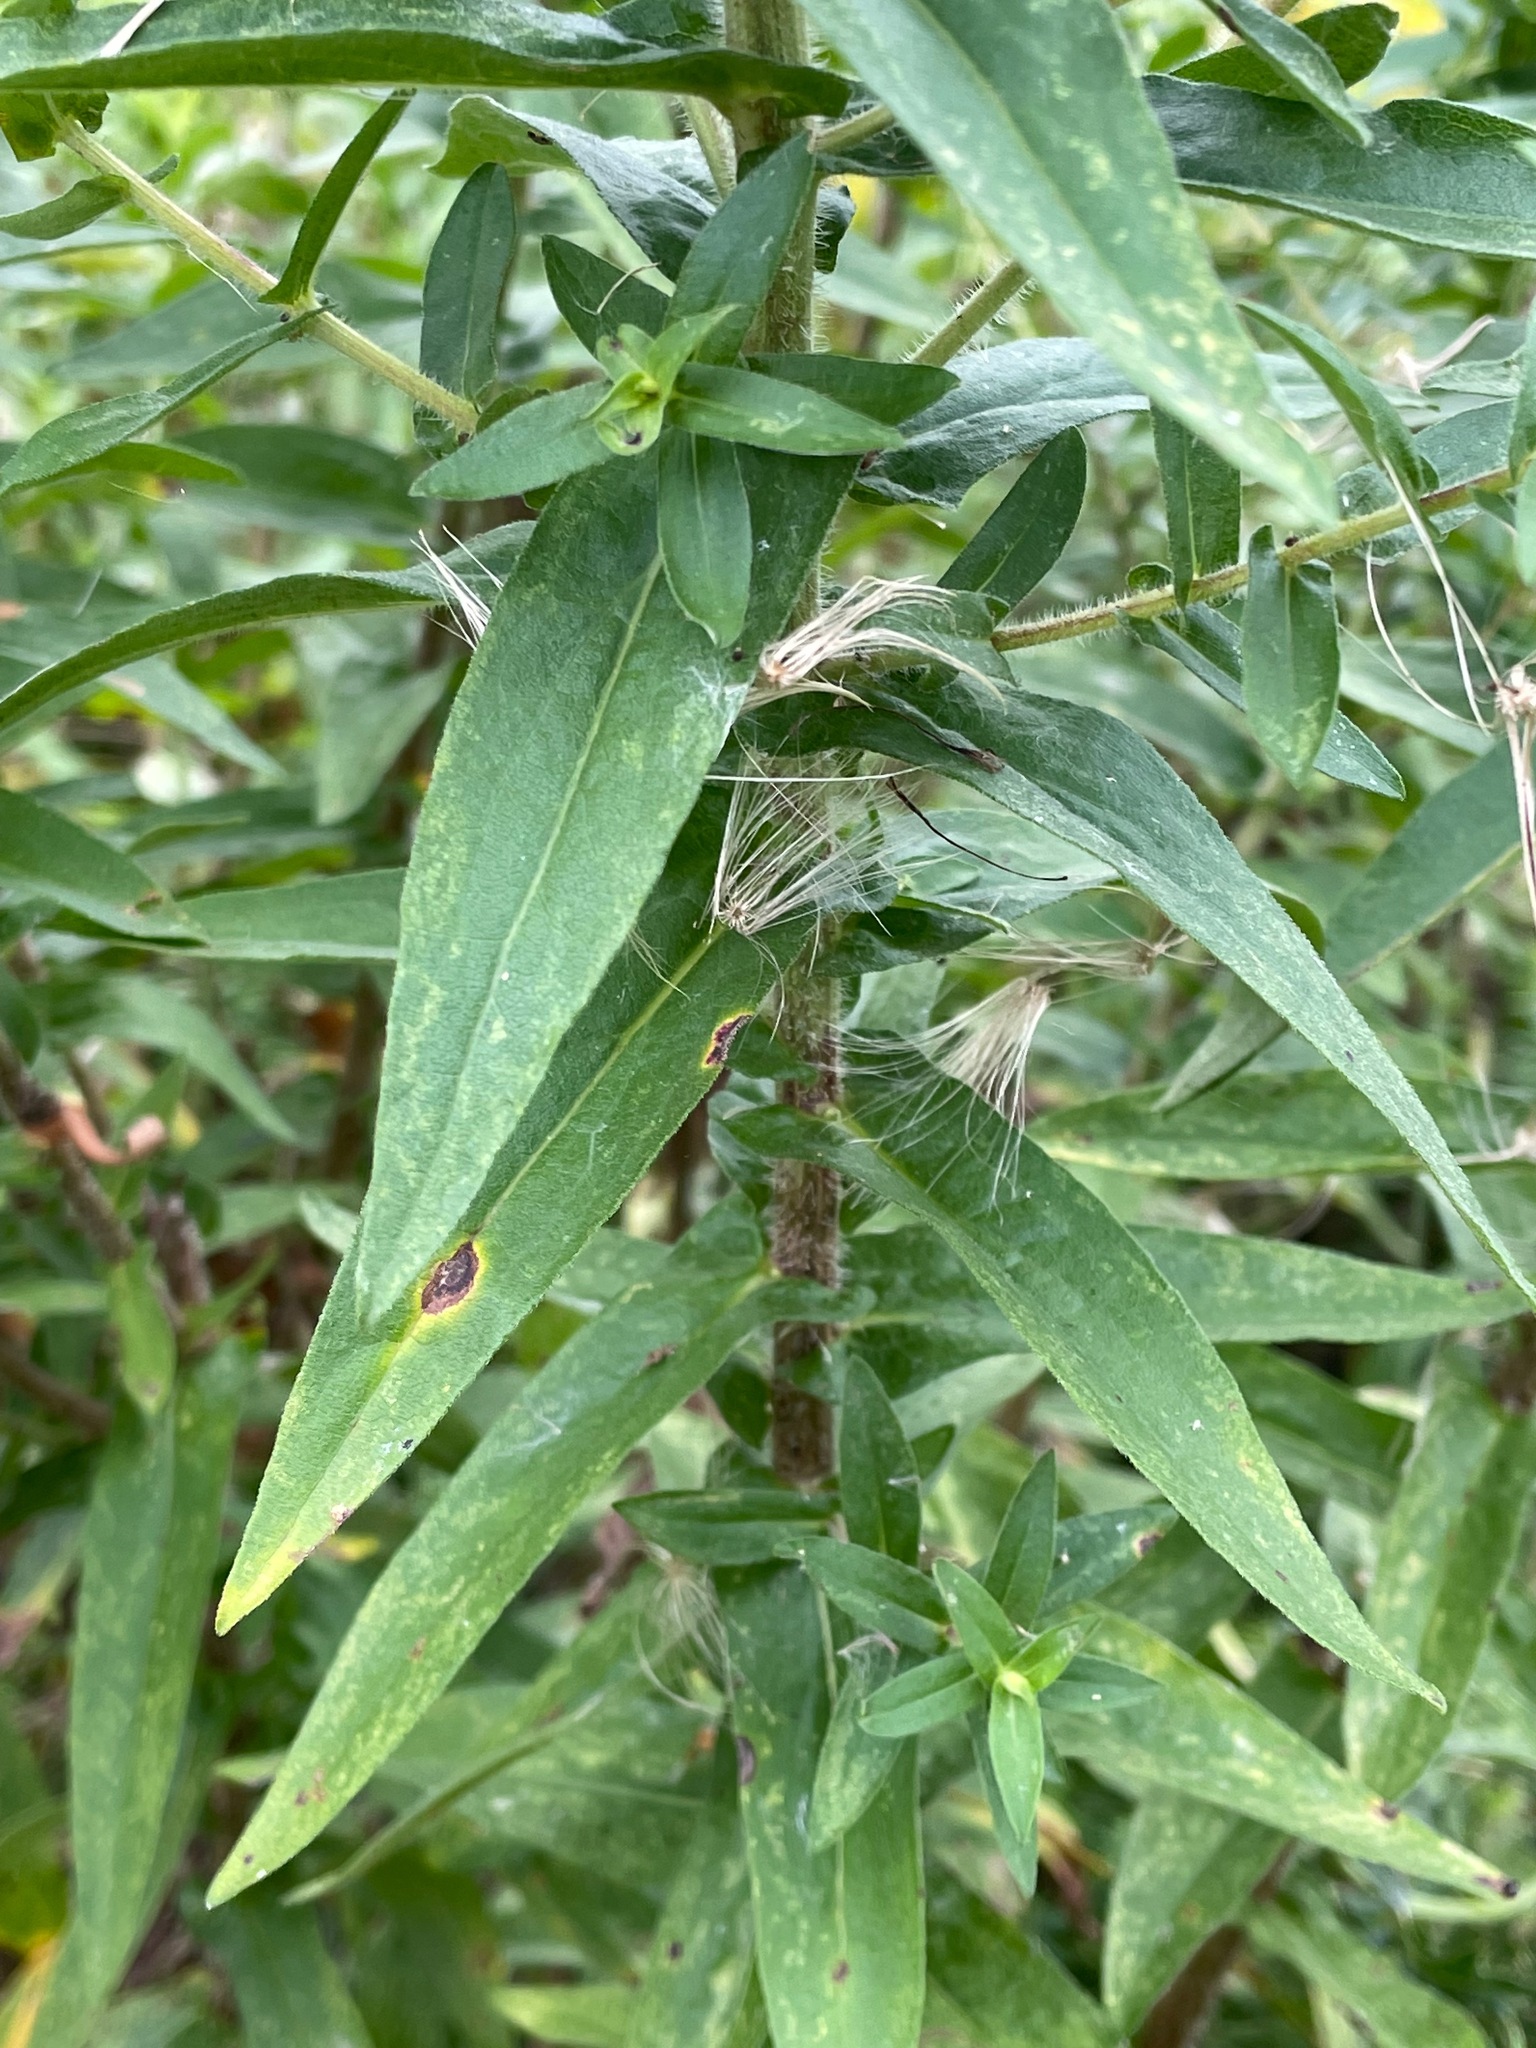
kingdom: Plantae
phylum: Tracheophyta
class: Magnoliopsida
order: Asterales
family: Asteraceae
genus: Symphyotrichum
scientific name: Symphyotrichum novae-angliae
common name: Michaelmas daisy
